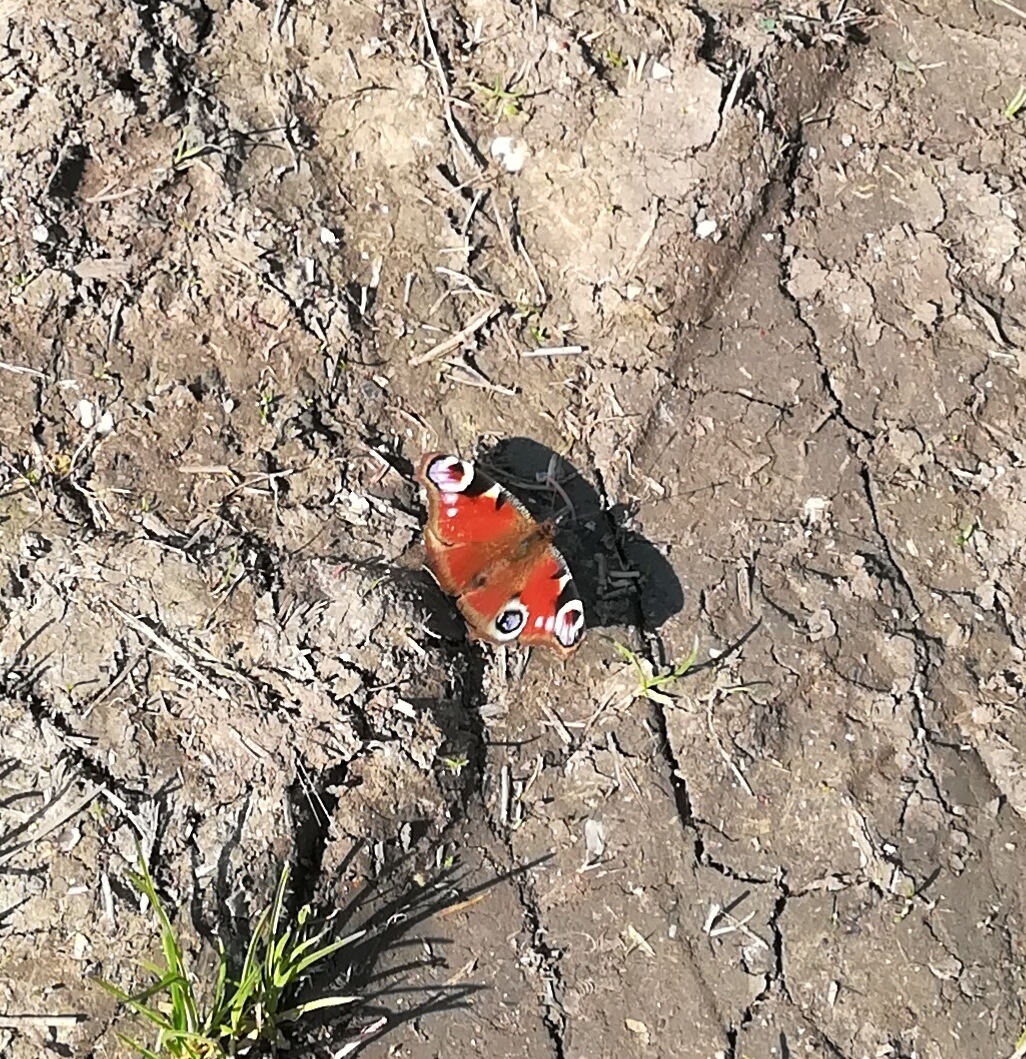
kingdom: Animalia
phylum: Arthropoda
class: Insecta
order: Lepidoptera
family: Nymphalidae
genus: Aglais
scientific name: Aglais io
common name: Peacock
